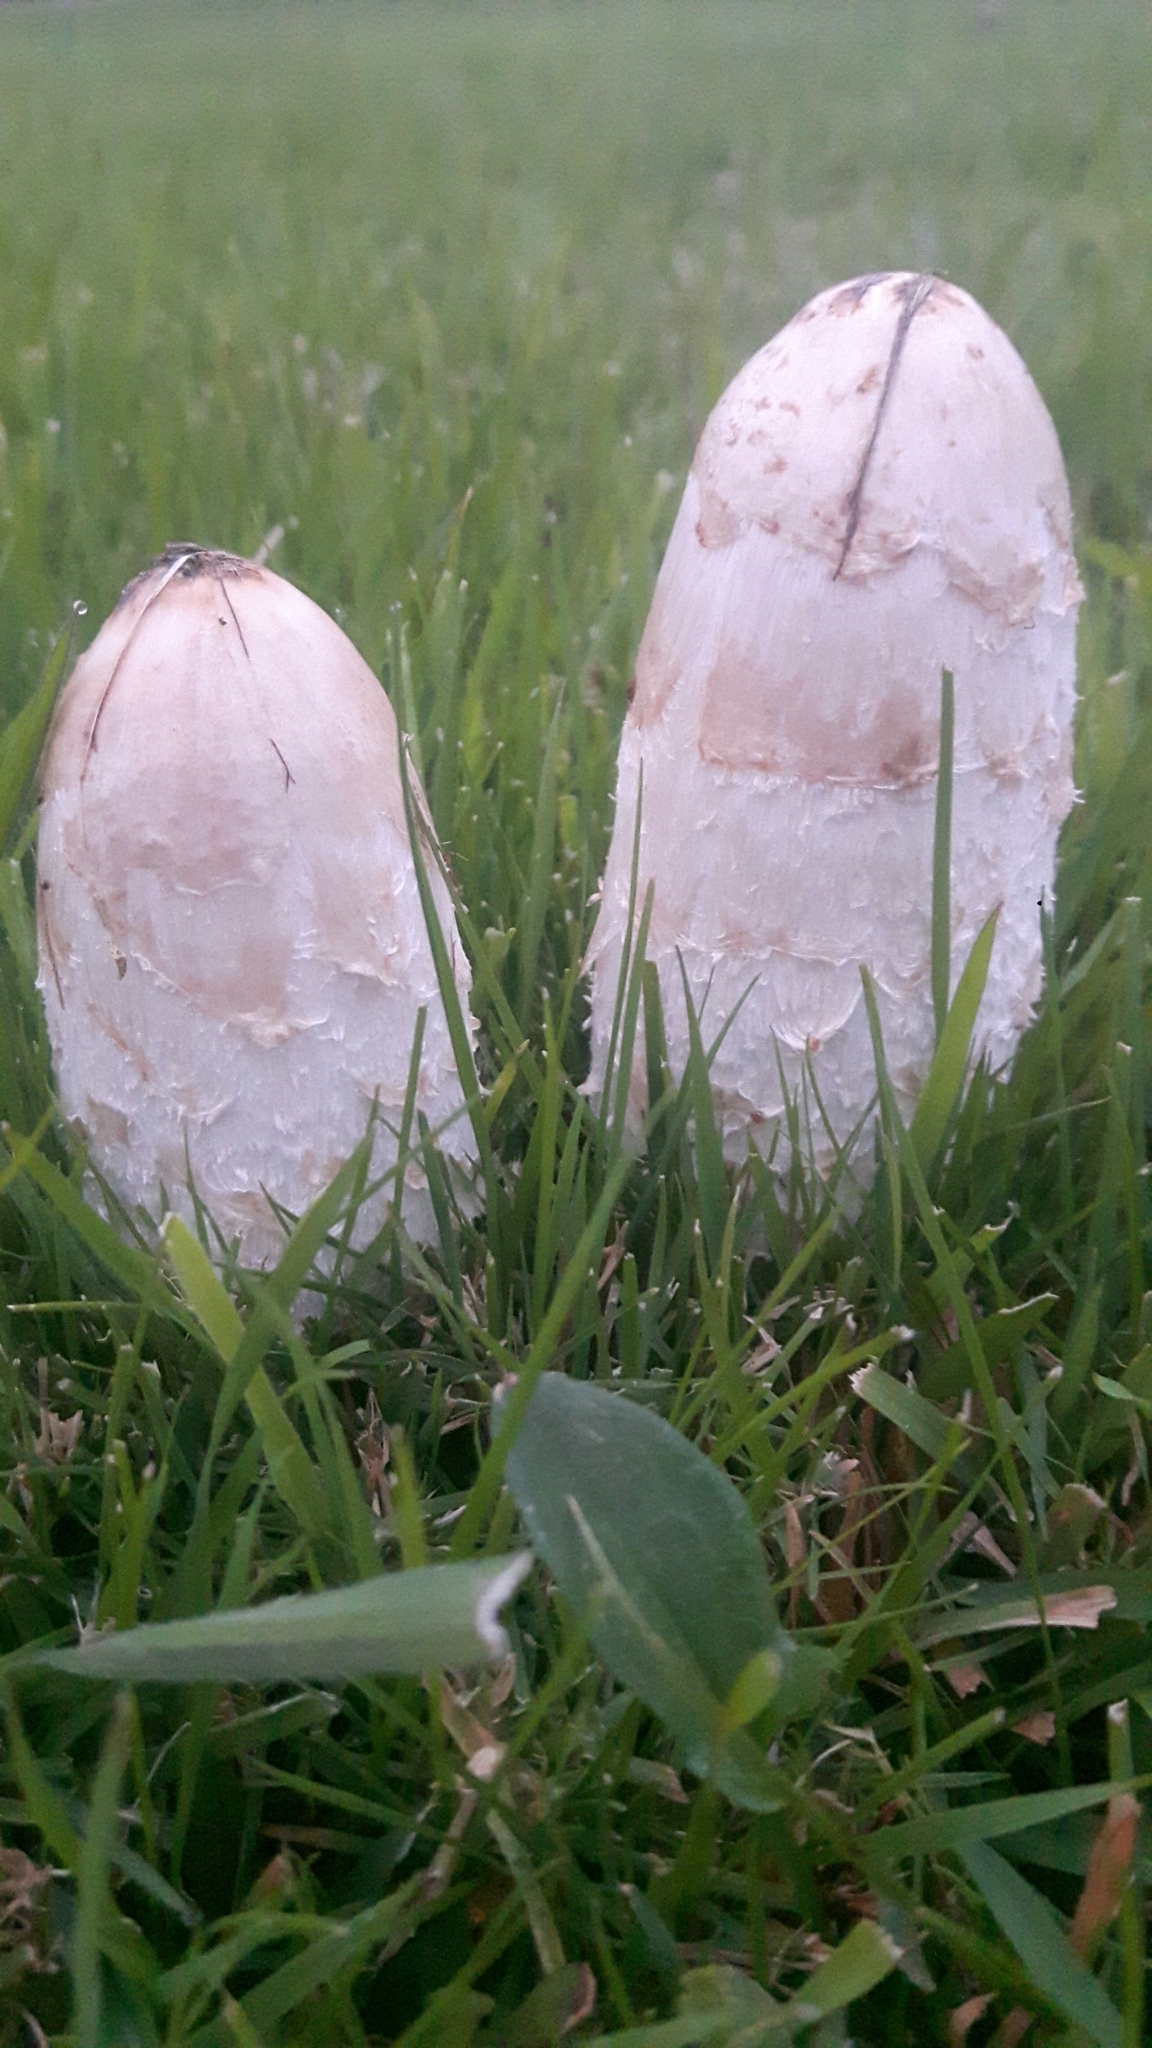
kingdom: Fungi
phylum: Basidiomycota
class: Agaricomycetes
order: Agaricales
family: Agaricaceae
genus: Coprinus
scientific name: Coprinus comatus
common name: Lawyer's wig
